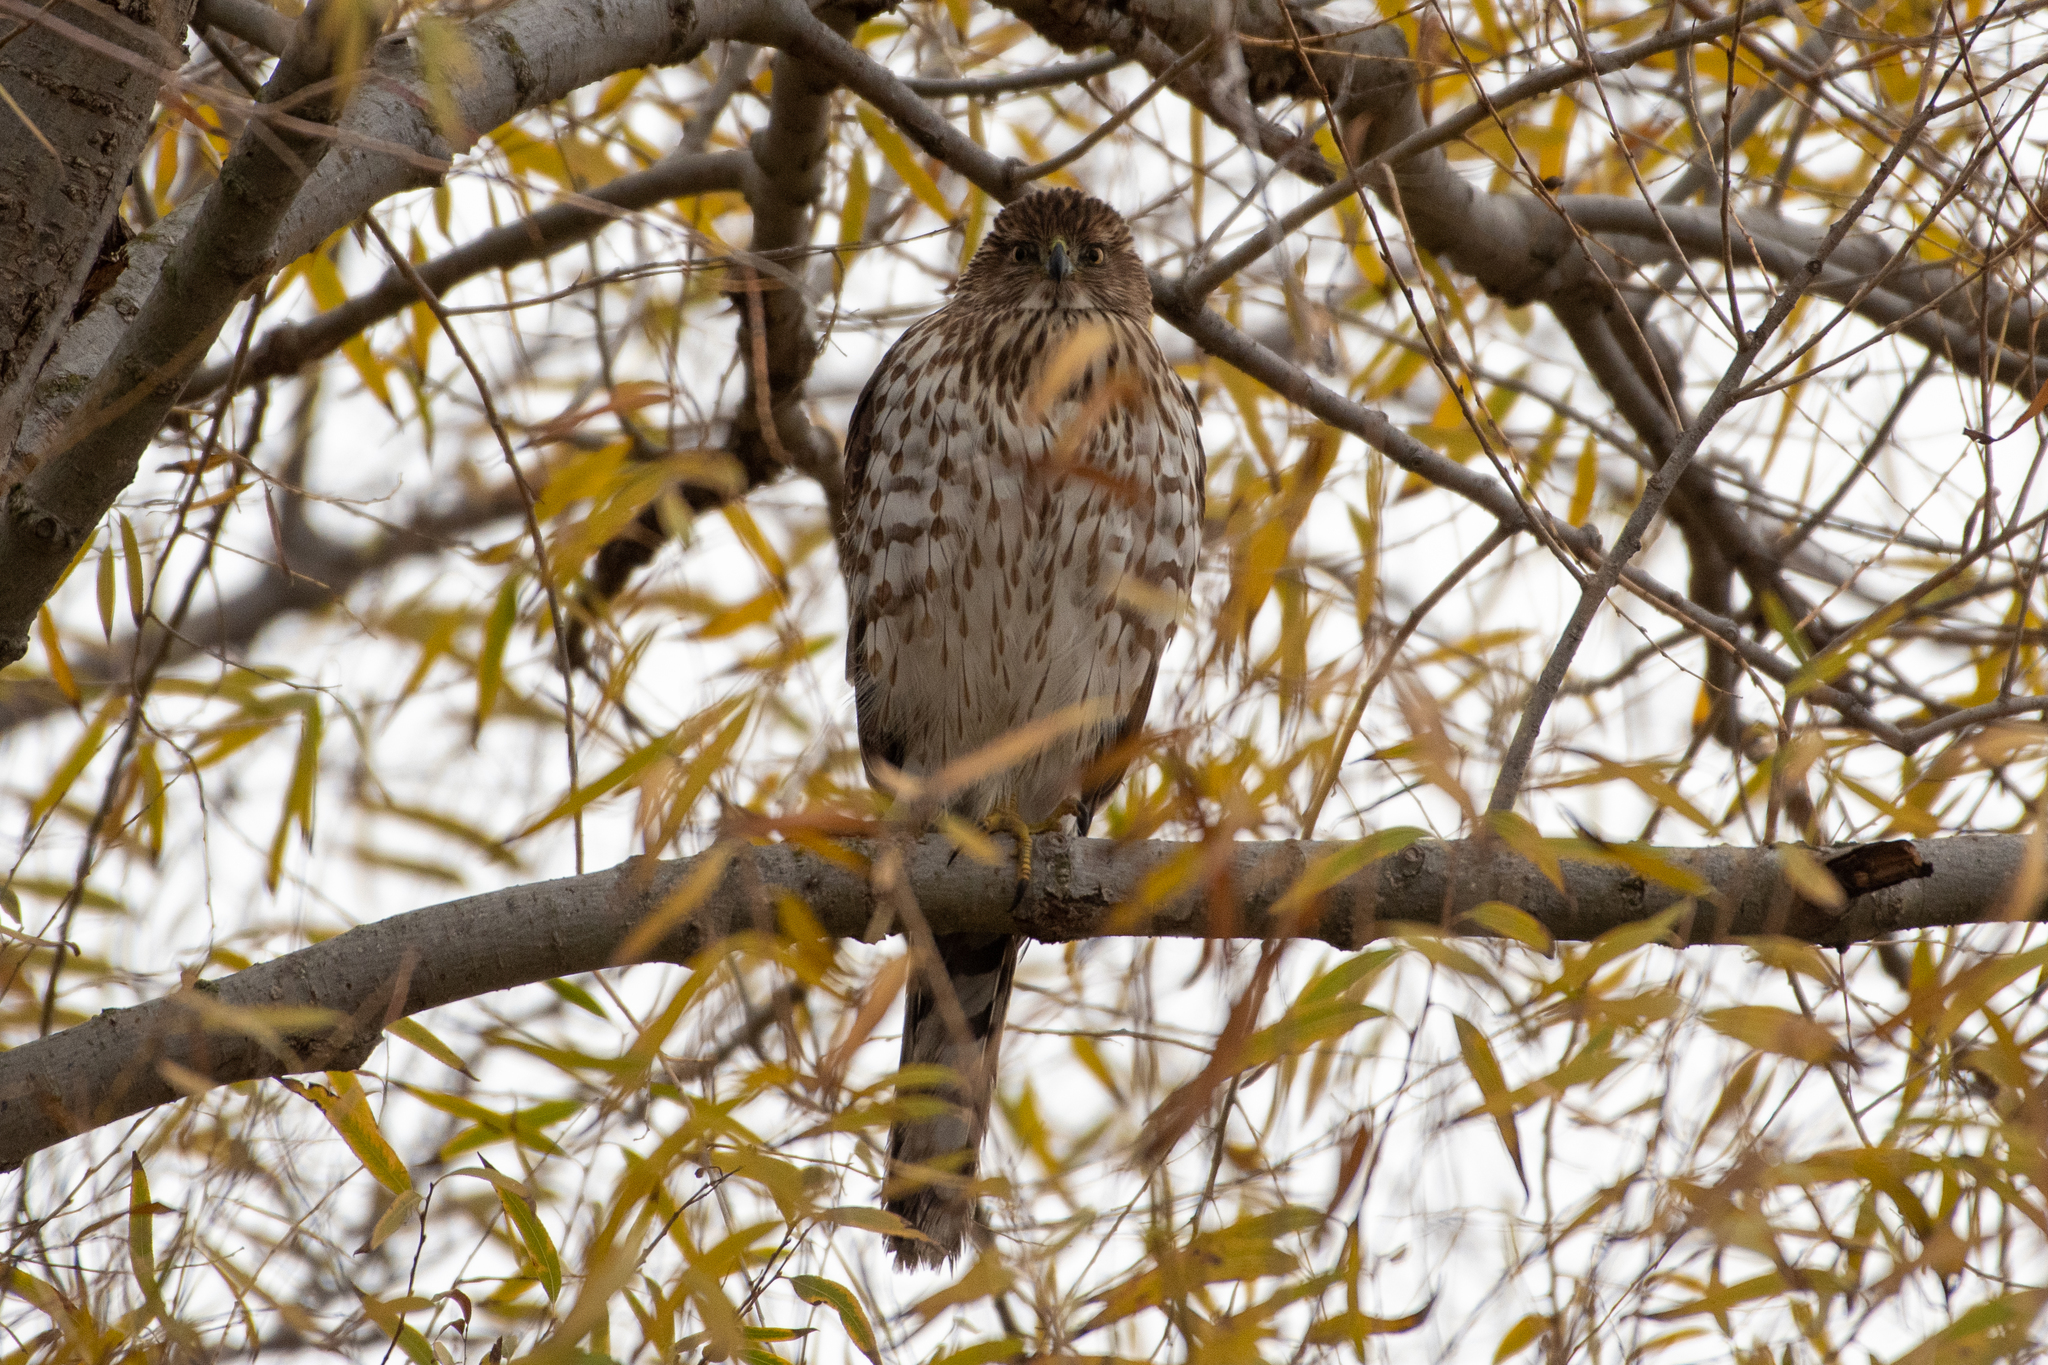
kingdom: Animalia
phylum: Chordata
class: Aves
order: Accipitriformes
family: Accipitridae
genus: Accipiter
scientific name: Accipiter cooperii
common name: Cooper's hawk
